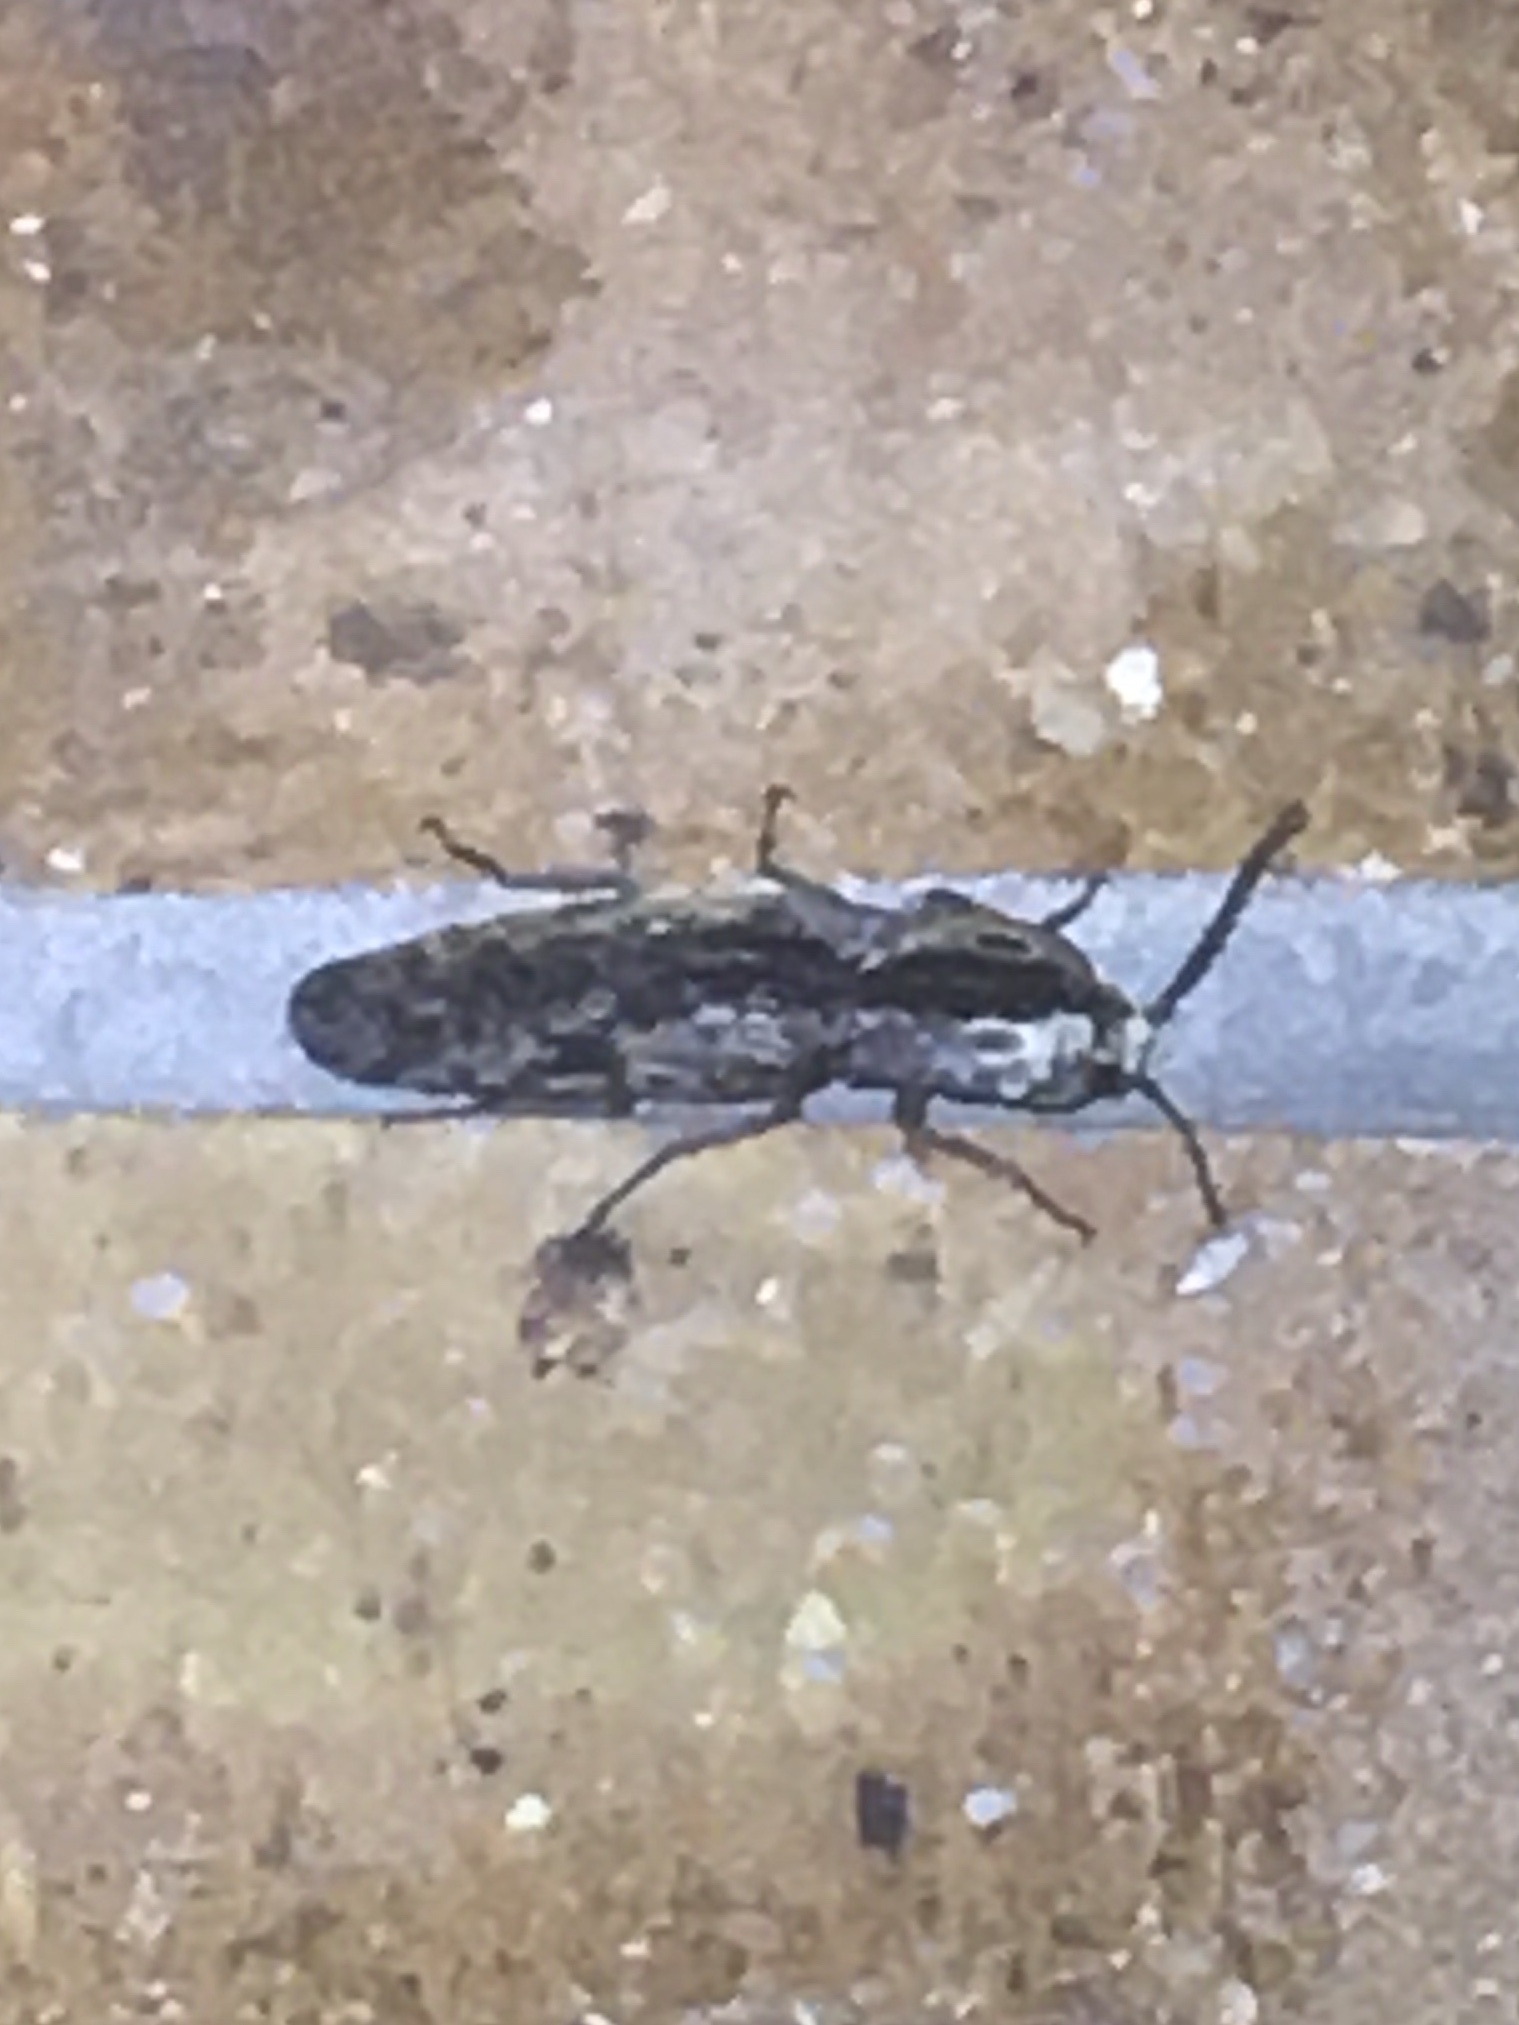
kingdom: Animalia
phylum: Arthropoda
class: Insecta
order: Coleoptera
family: Elateridae
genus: Alaus
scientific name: Alaus myops
